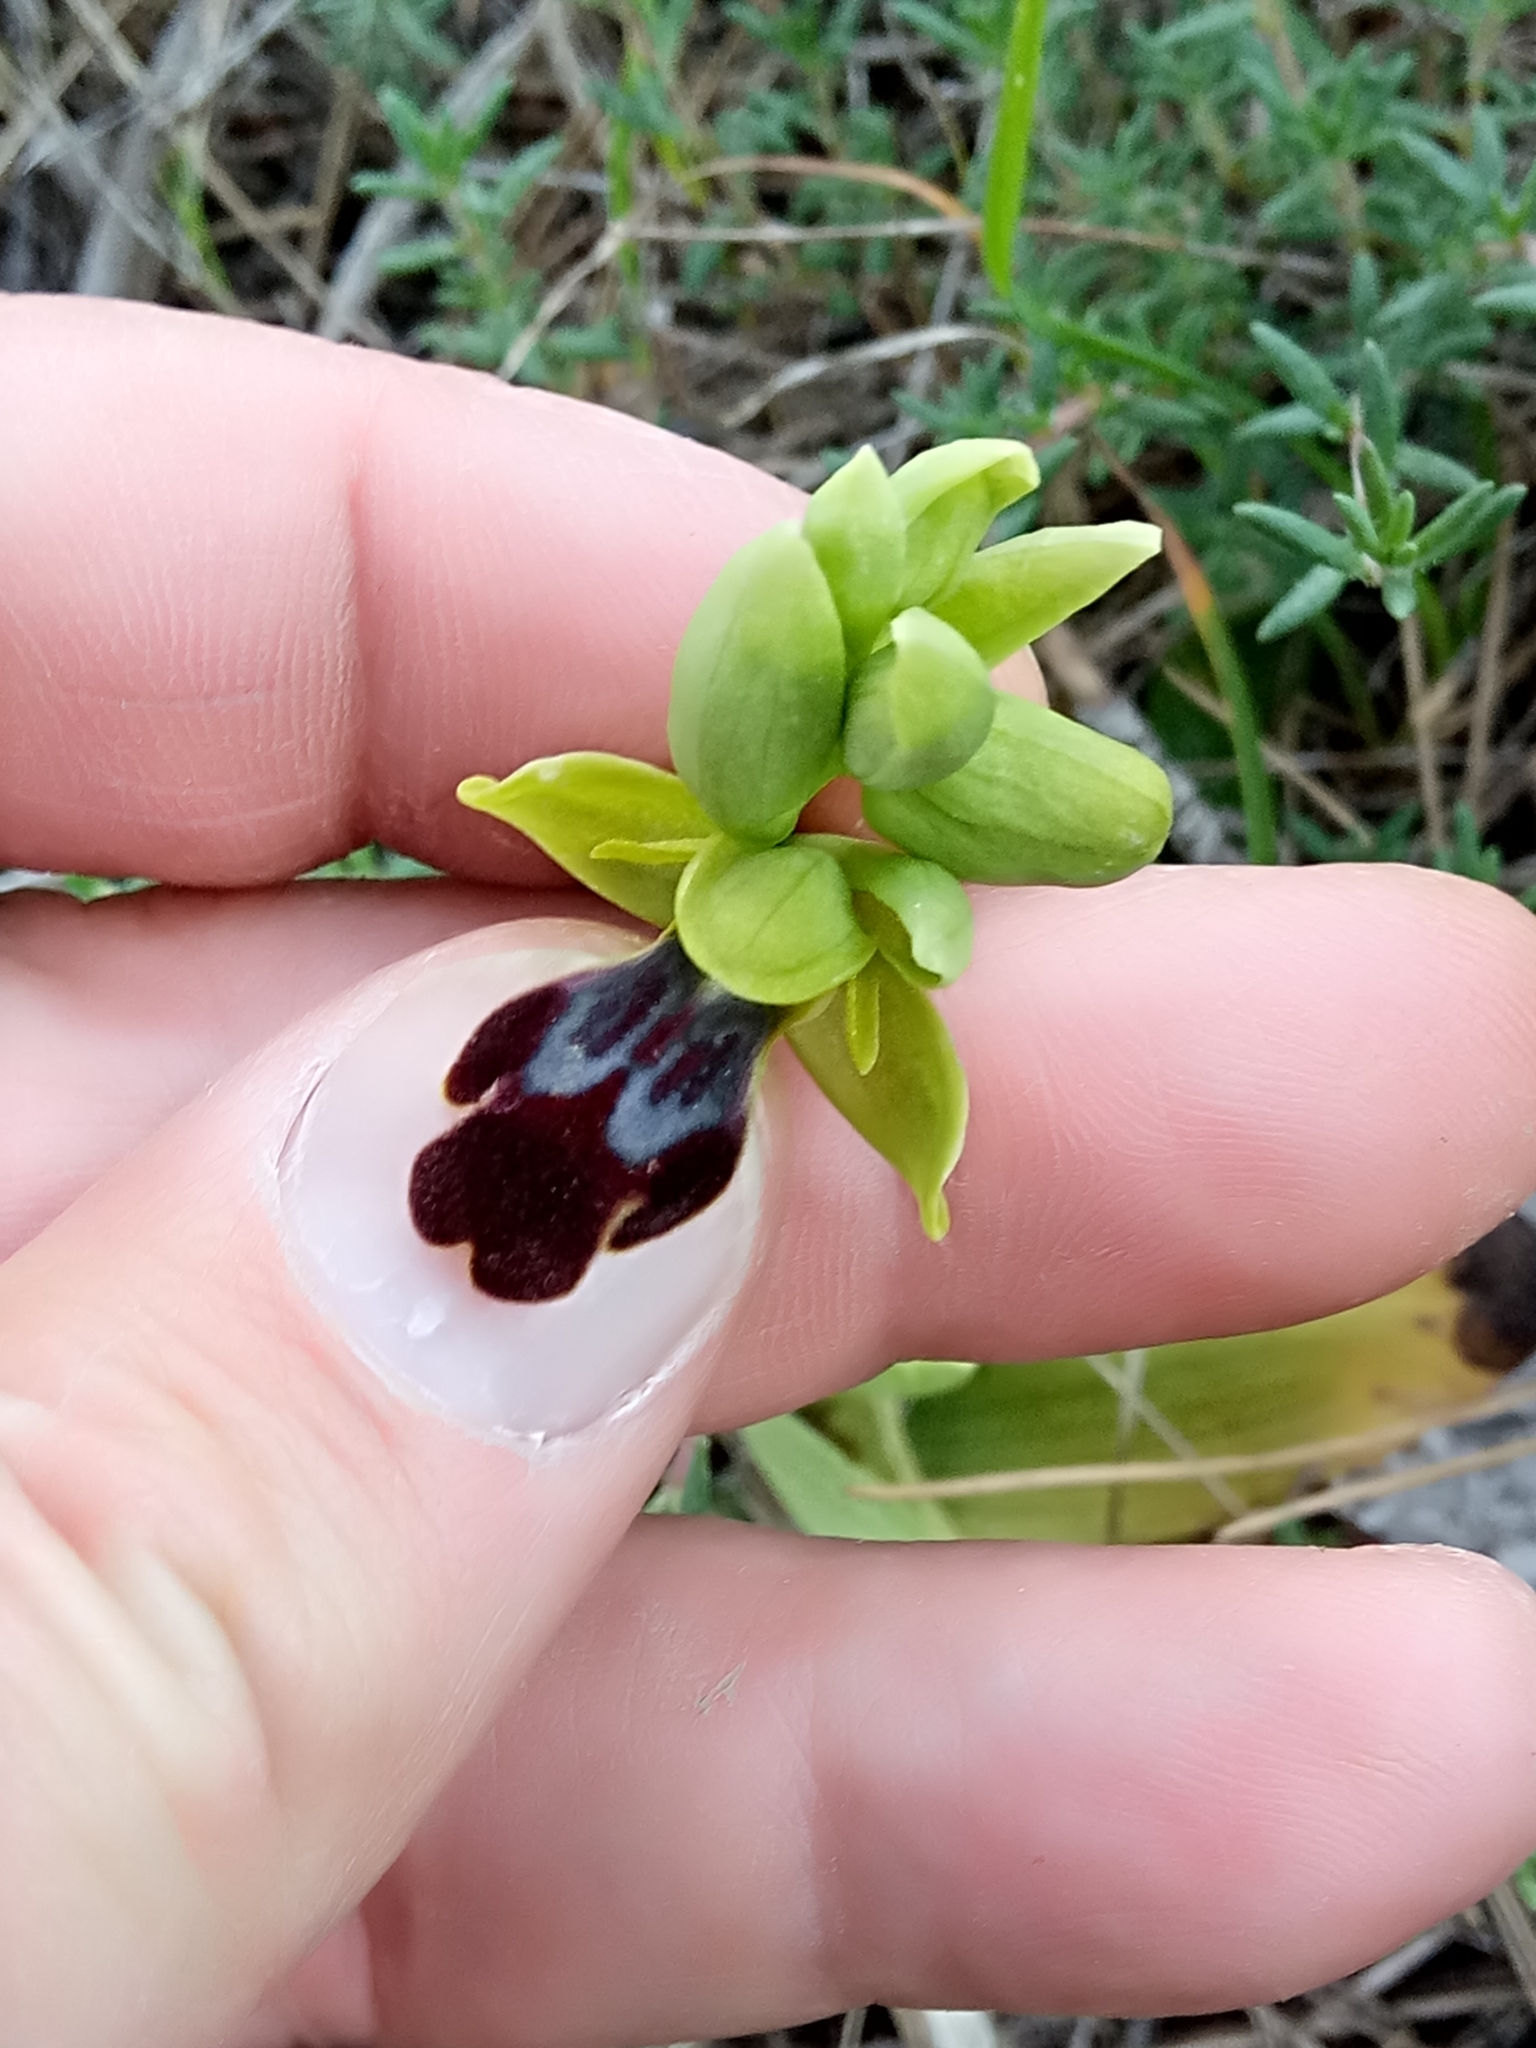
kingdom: Plantae
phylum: Tracheophyta
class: Liliopsida
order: Asparagales
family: Orchidaceae
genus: Ophrys
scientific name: Ophrys fusca
